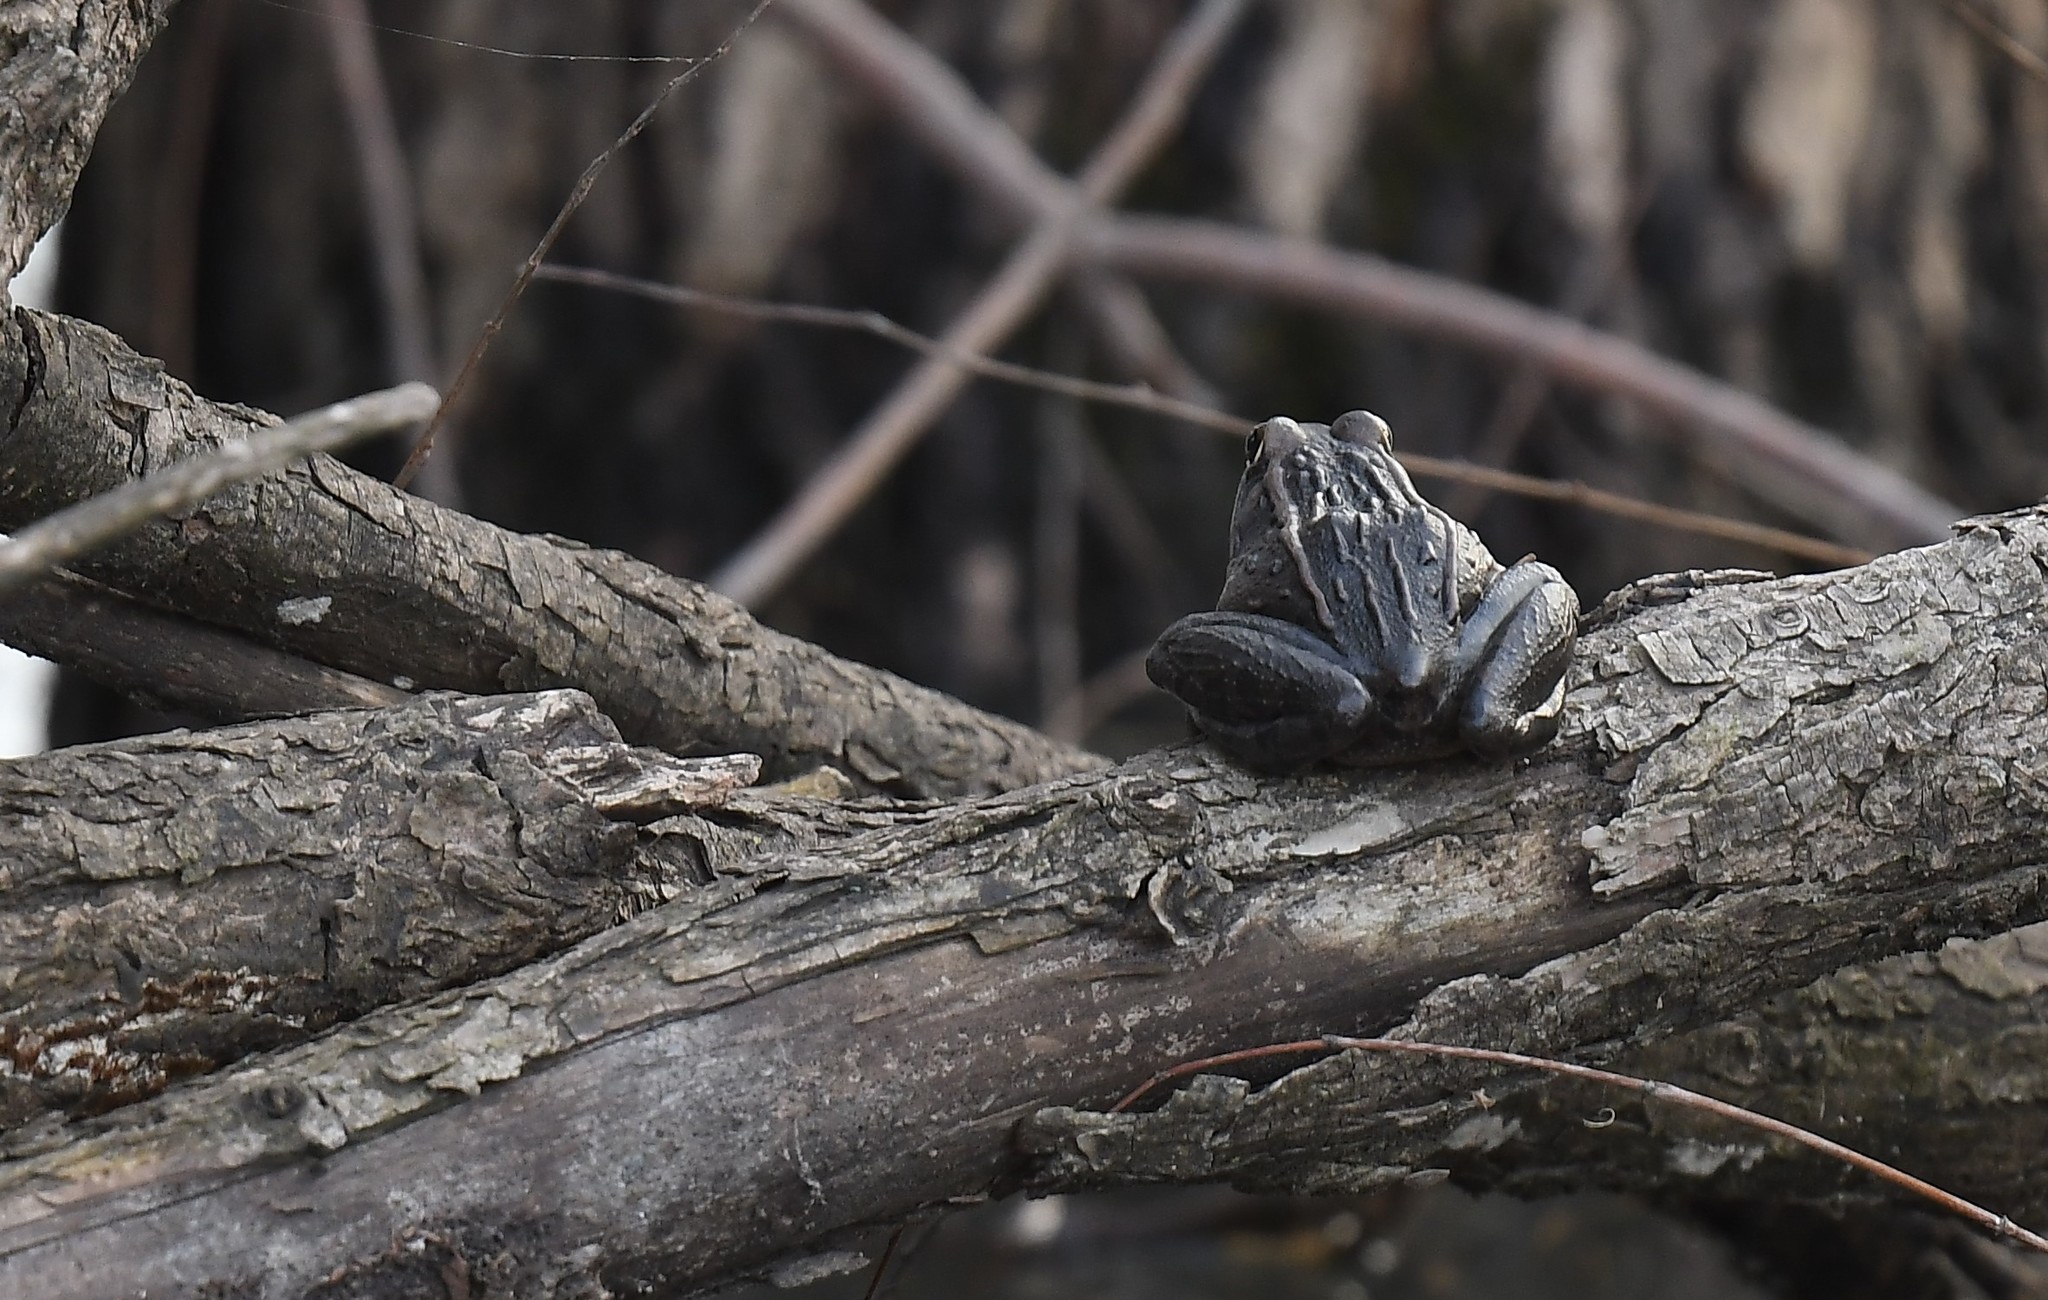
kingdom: Animalia
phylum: Chordata
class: Amphibia
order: Anura
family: Ranidae
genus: Lithobates
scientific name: Lithobates sphenocephalus
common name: Southern leopard frog
